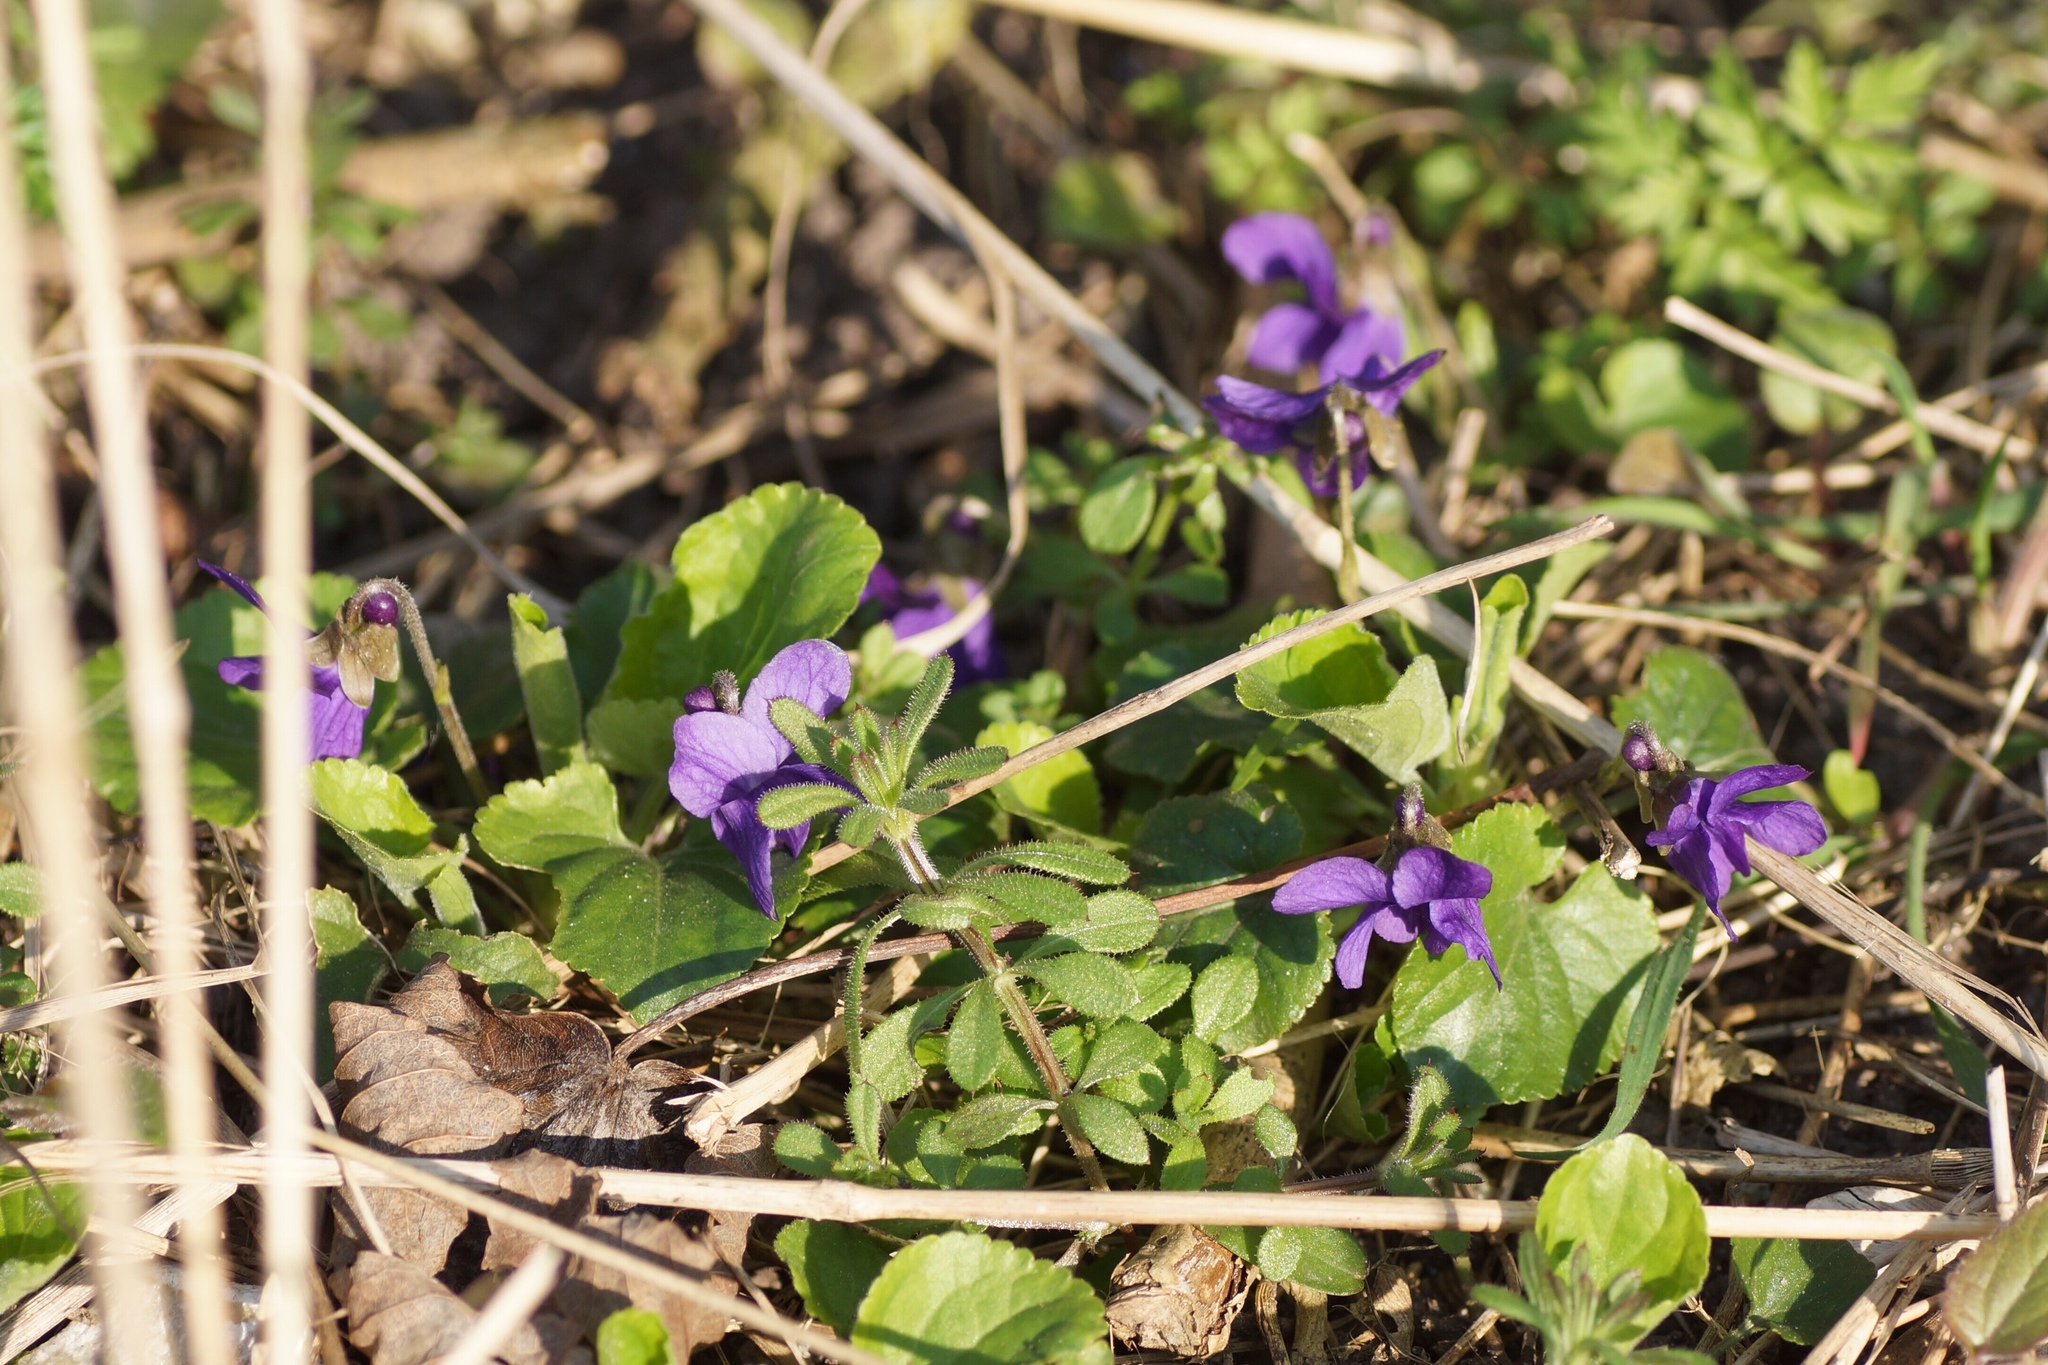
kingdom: Plantae
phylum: Tracheophyta
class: Magnoliopsida
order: Malpighiales
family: Violaceae
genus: Viola
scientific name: Viola odorata
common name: Sweet violet
